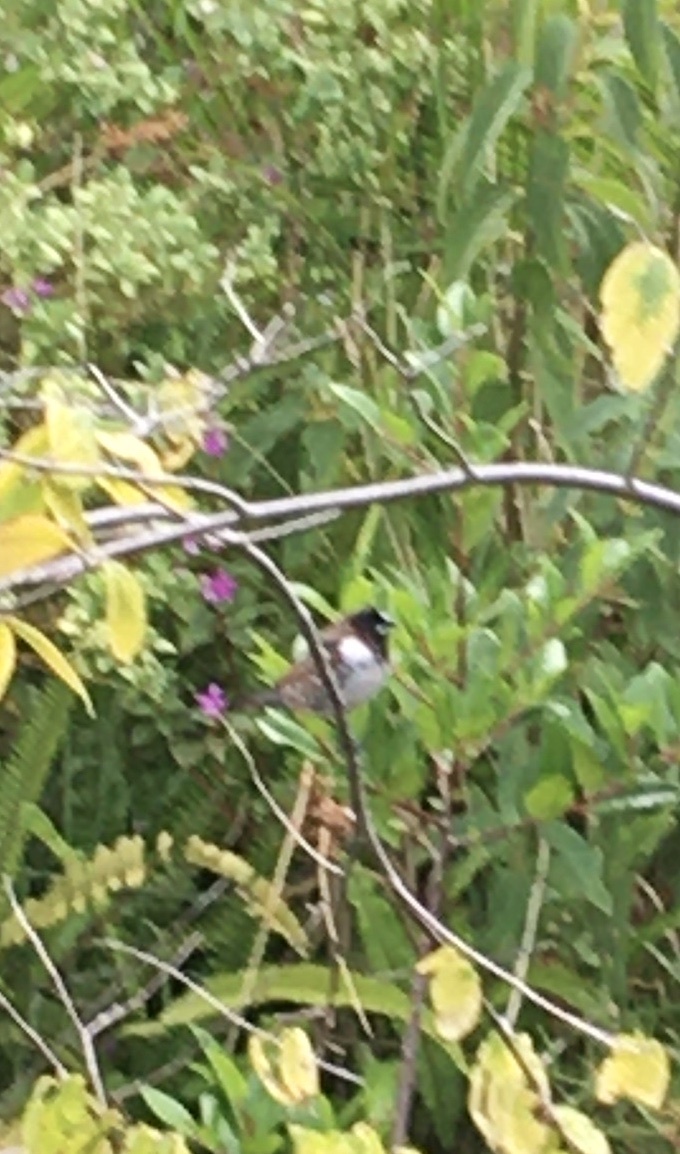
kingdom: Animalia
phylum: Chordata
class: Aves
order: Passeriformes
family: Estrildidae
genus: Lonchura
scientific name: Lonchura cucullata
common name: Bronze mannikin
